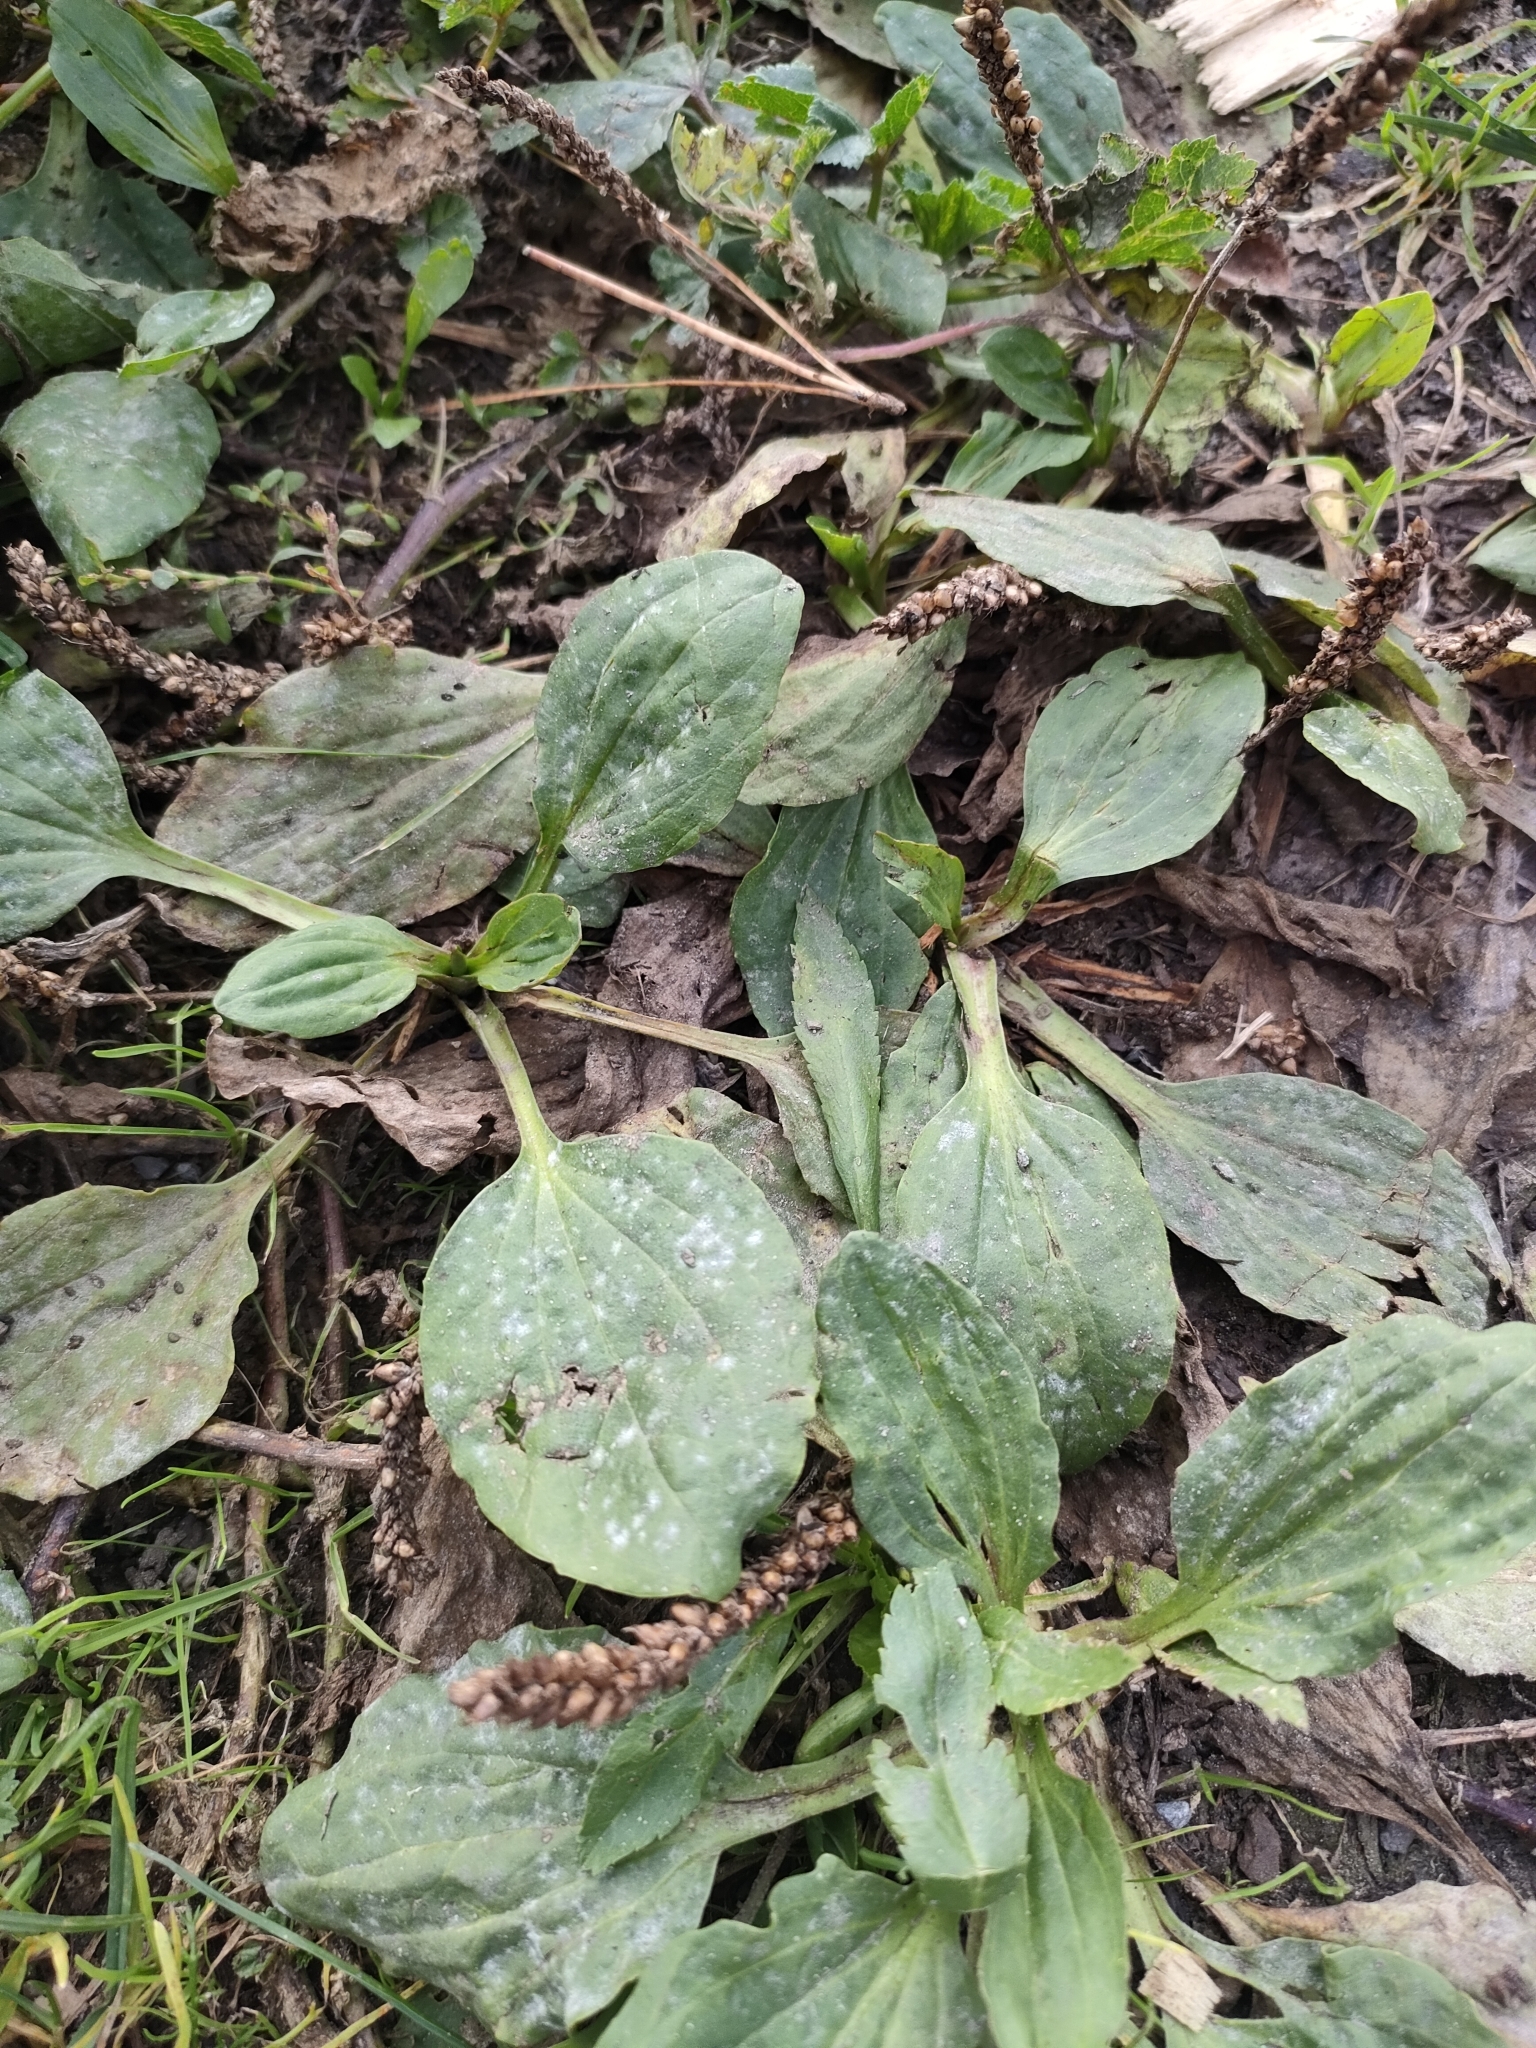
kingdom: Plantae
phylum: Tracheophyta
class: Magnoliopsida
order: Lamiales
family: Plantaginaceae
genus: Plantago
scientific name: Plantago major
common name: Common plantain
